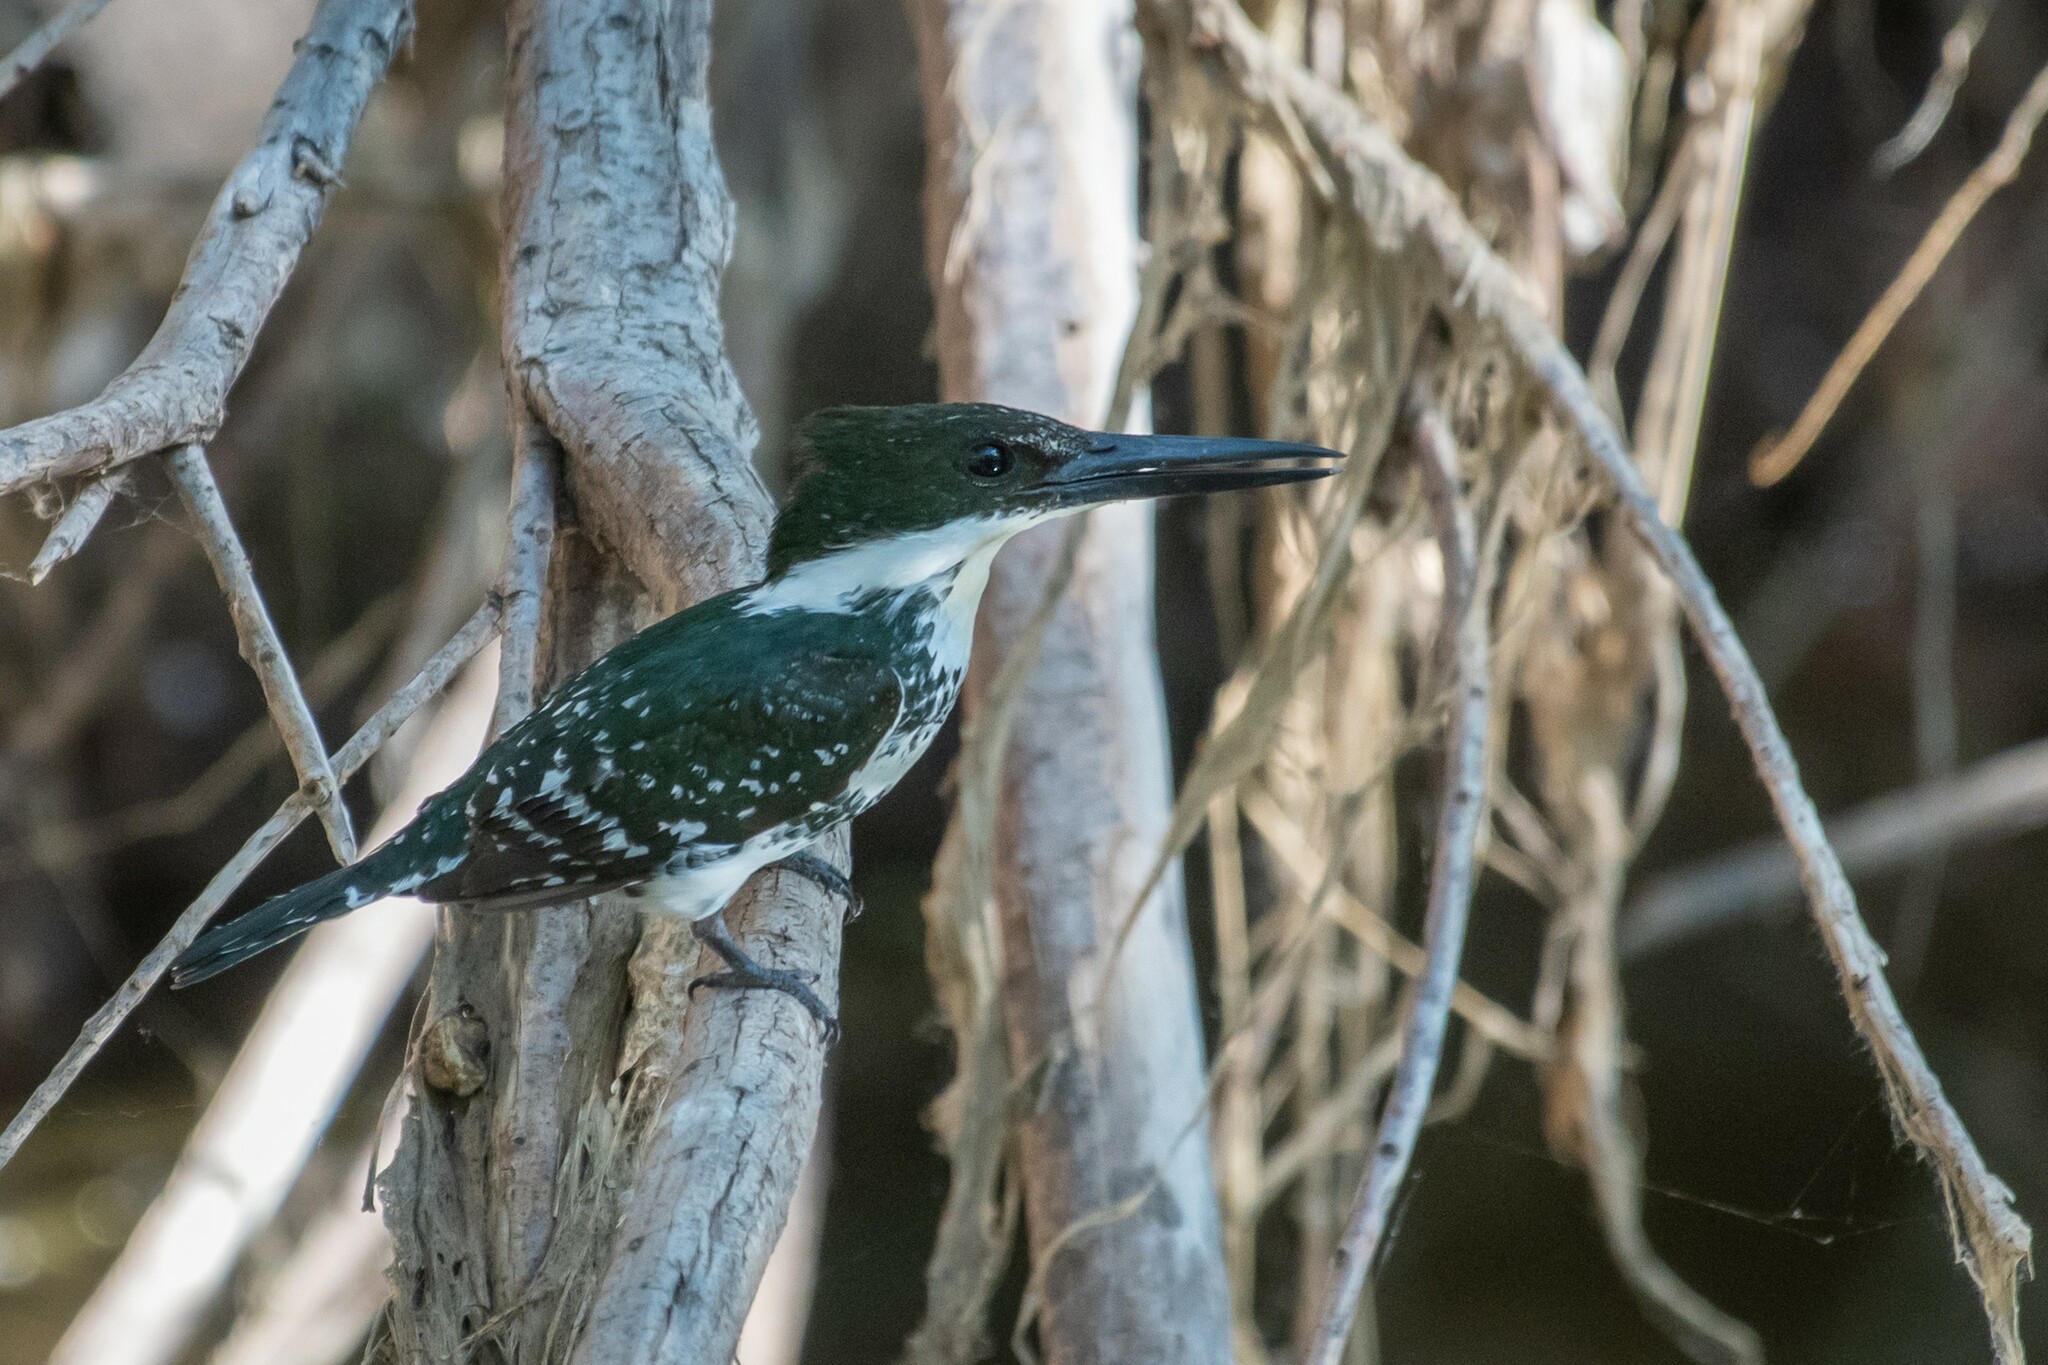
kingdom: Animalia
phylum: Chordata
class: Aves
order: Coraciiformes
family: Alcedinidae
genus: Chloroceryle
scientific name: Chloroceryle americana
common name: Green kingfisher
